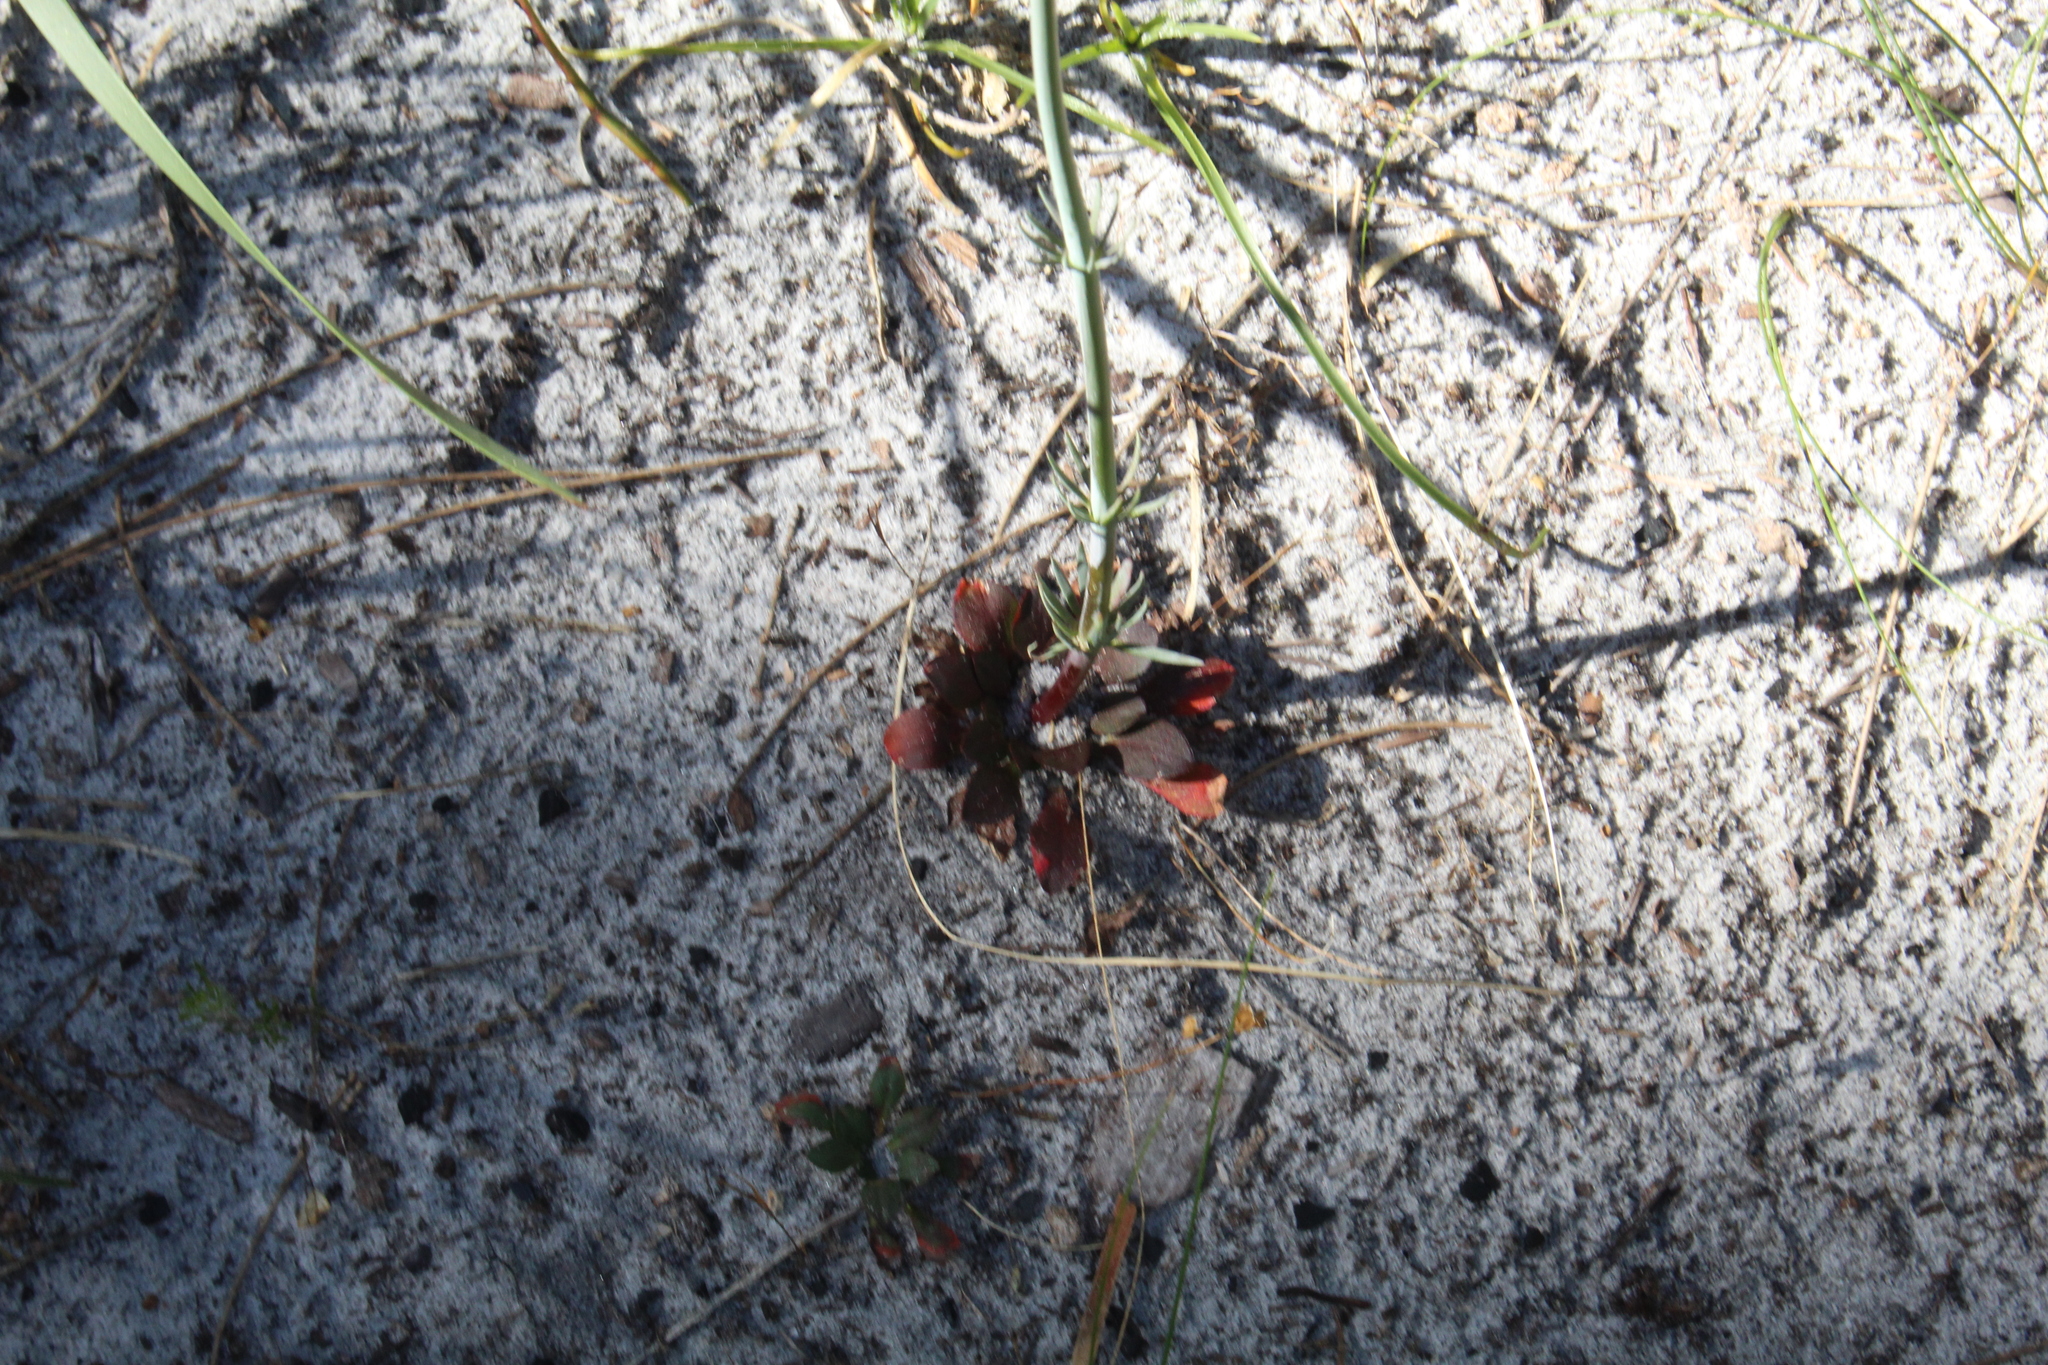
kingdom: Plantae
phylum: Tracheophyta
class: Magnoliopsida
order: Asterales
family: Stylidiaceae
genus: Stylidium
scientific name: Stylidium diversifolium
